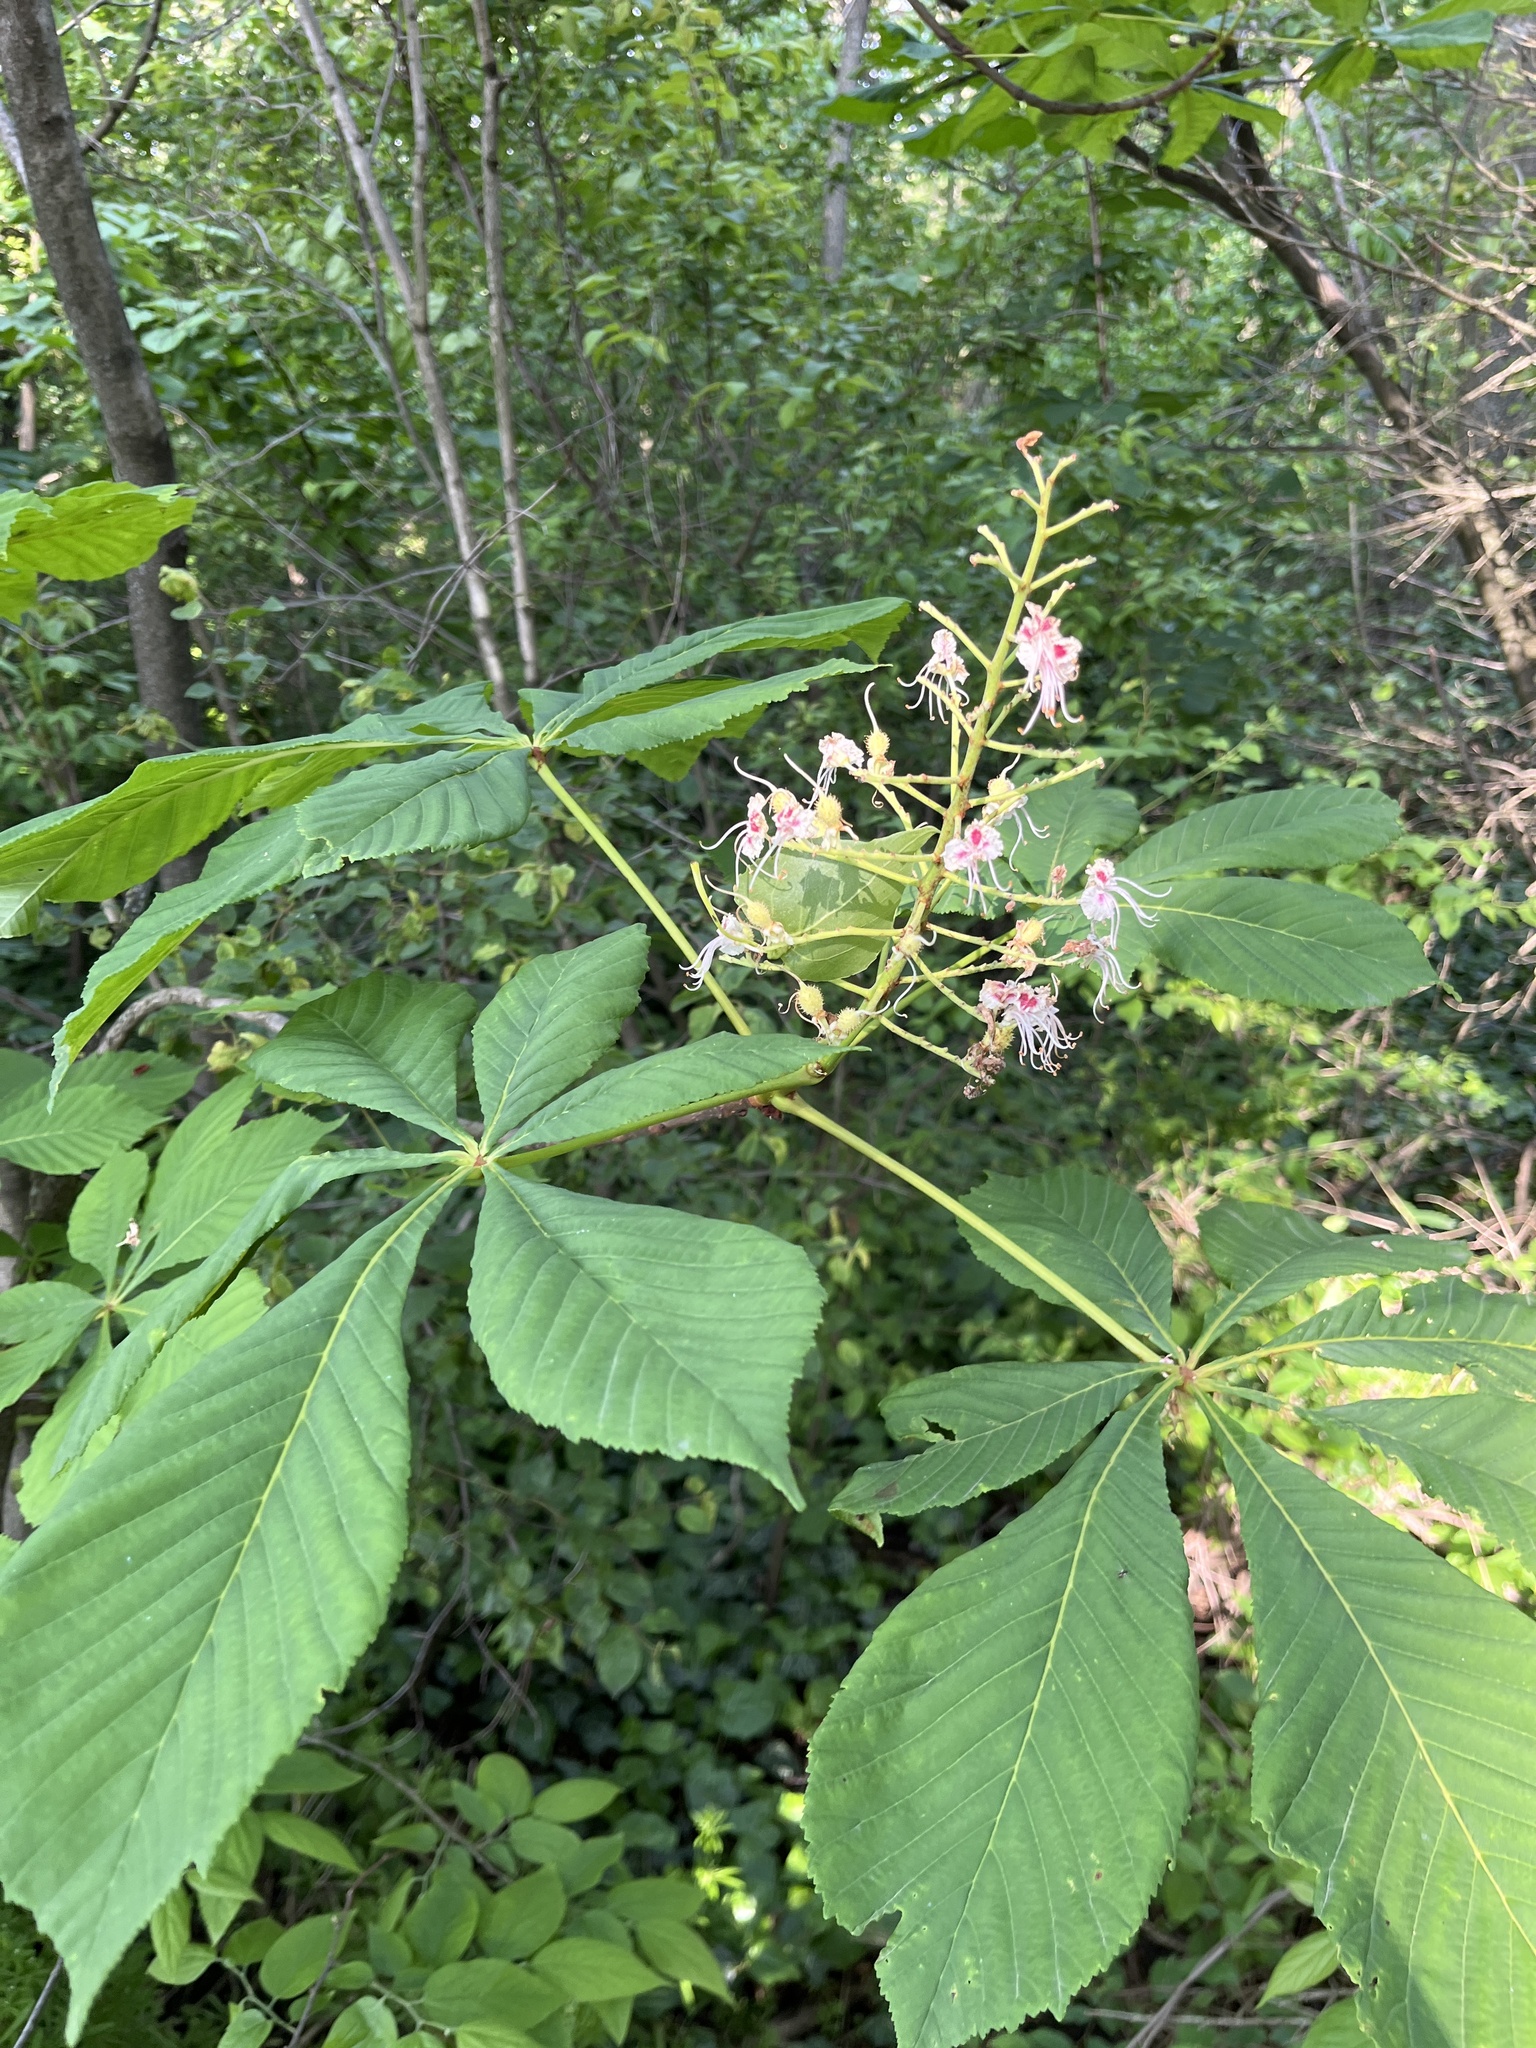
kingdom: Plantae
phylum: Tracheophyta
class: Magnoliopsida
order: Sapindales
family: Sapindaceae
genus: Aesculus
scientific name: Aesculus hippocastanum
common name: Horse-chestnut
